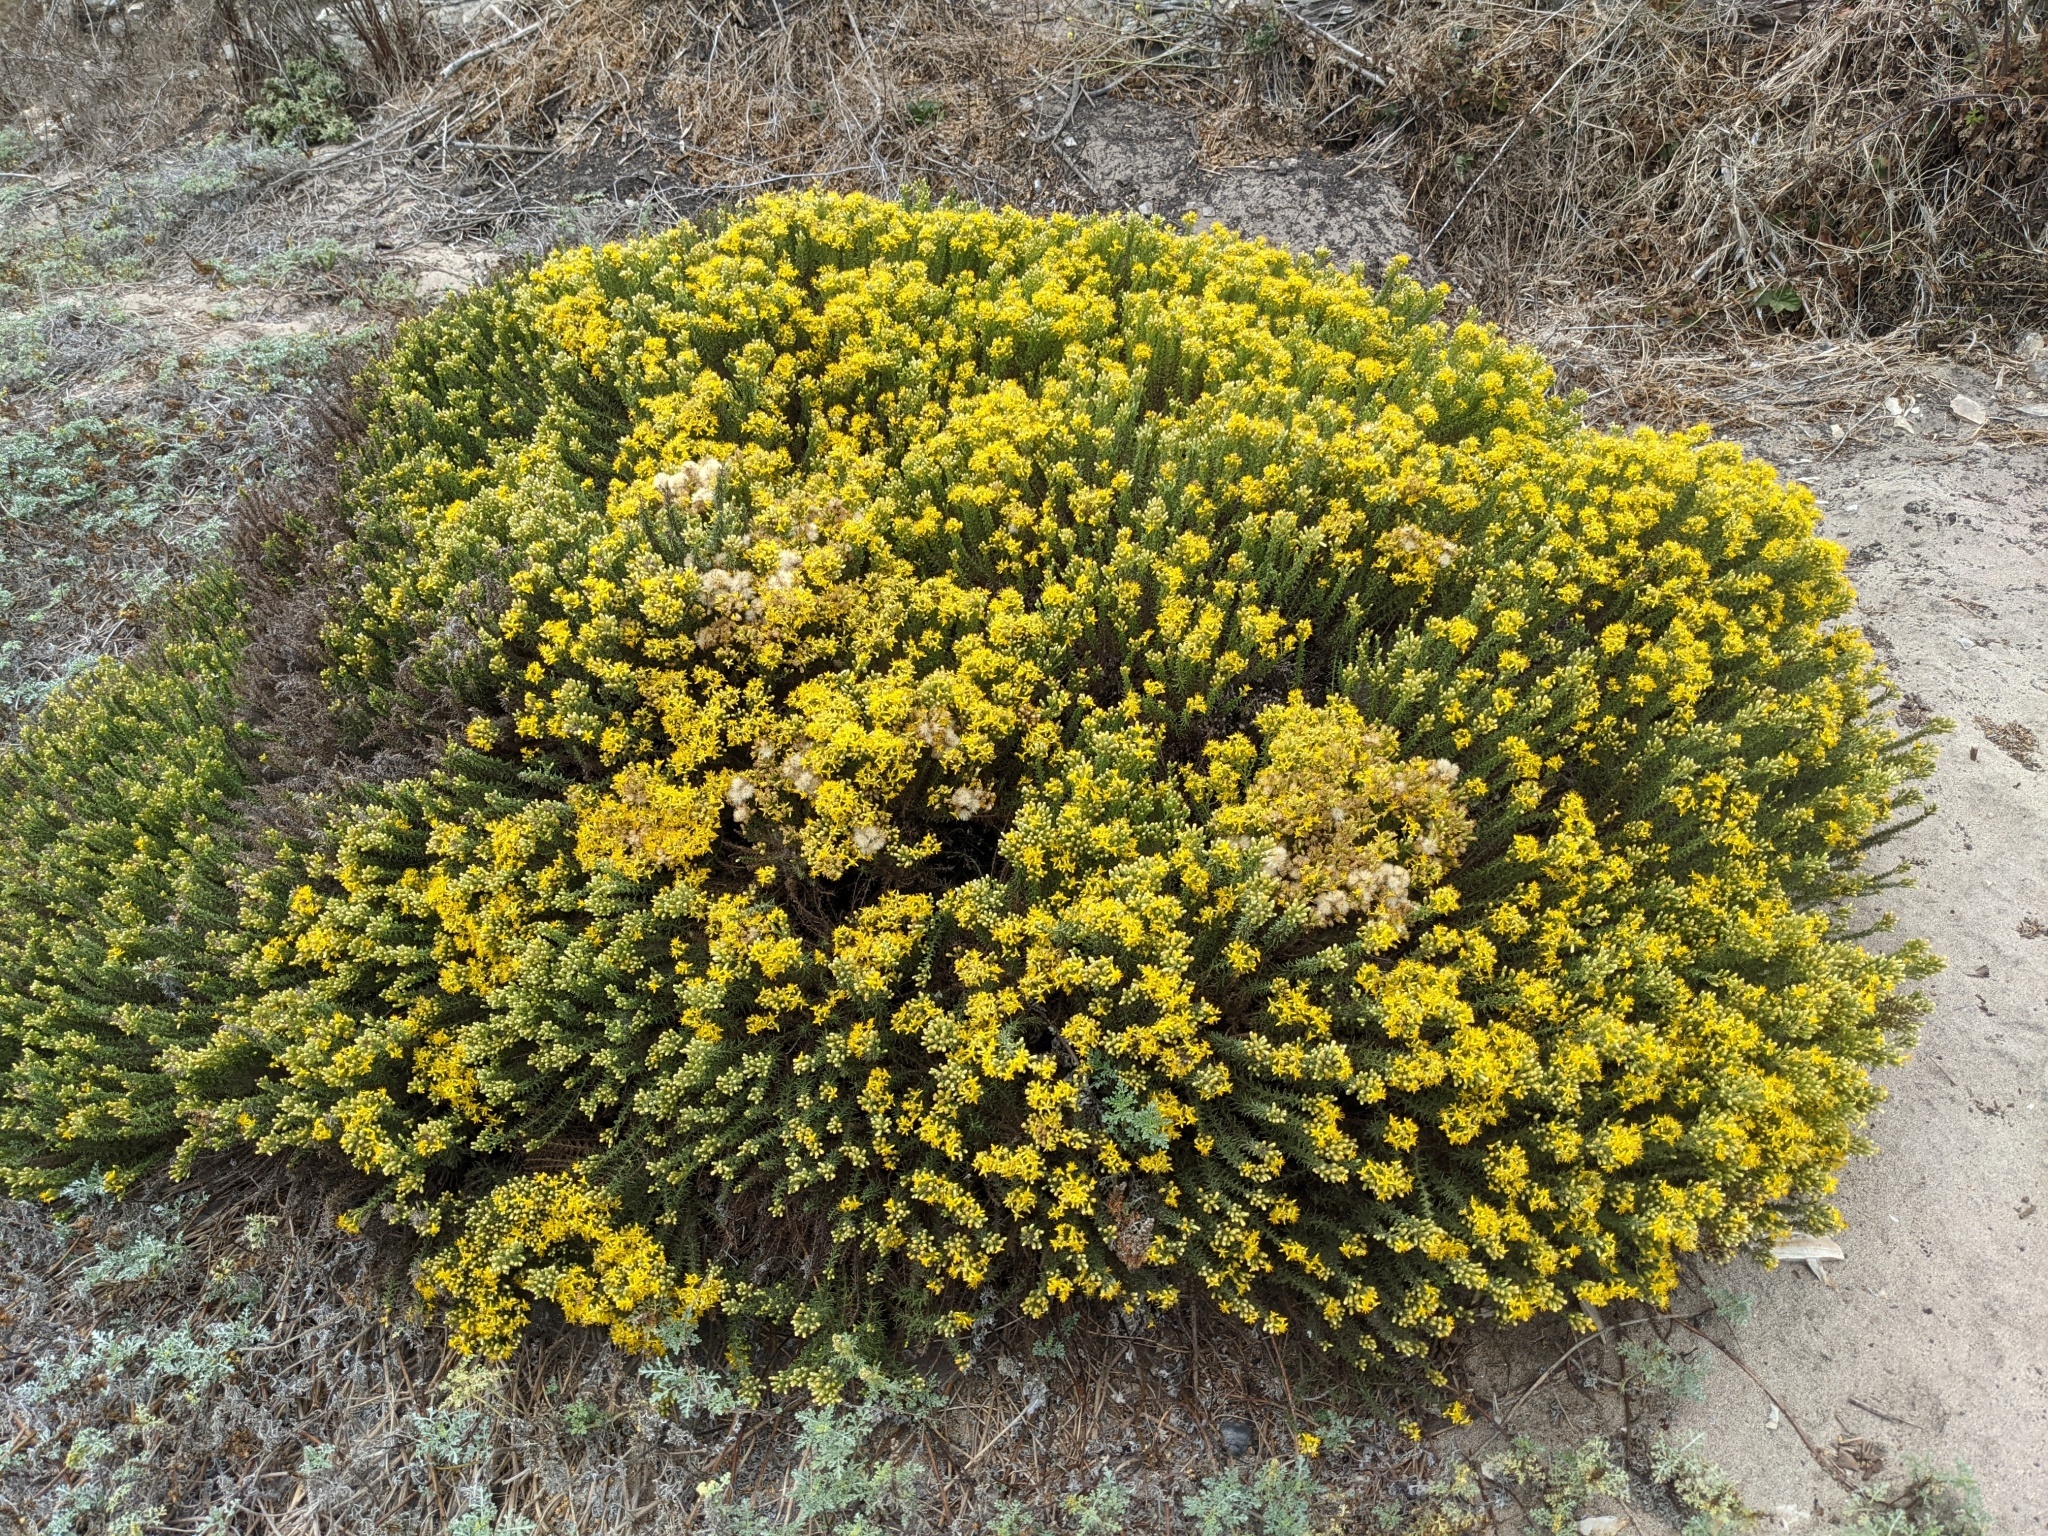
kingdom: Plantae
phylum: Tracheophyta
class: Magnoliopsida
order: Asterales
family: Asteraceae
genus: Ericameria
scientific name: Ericameria ericoides
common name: California goldenbush
